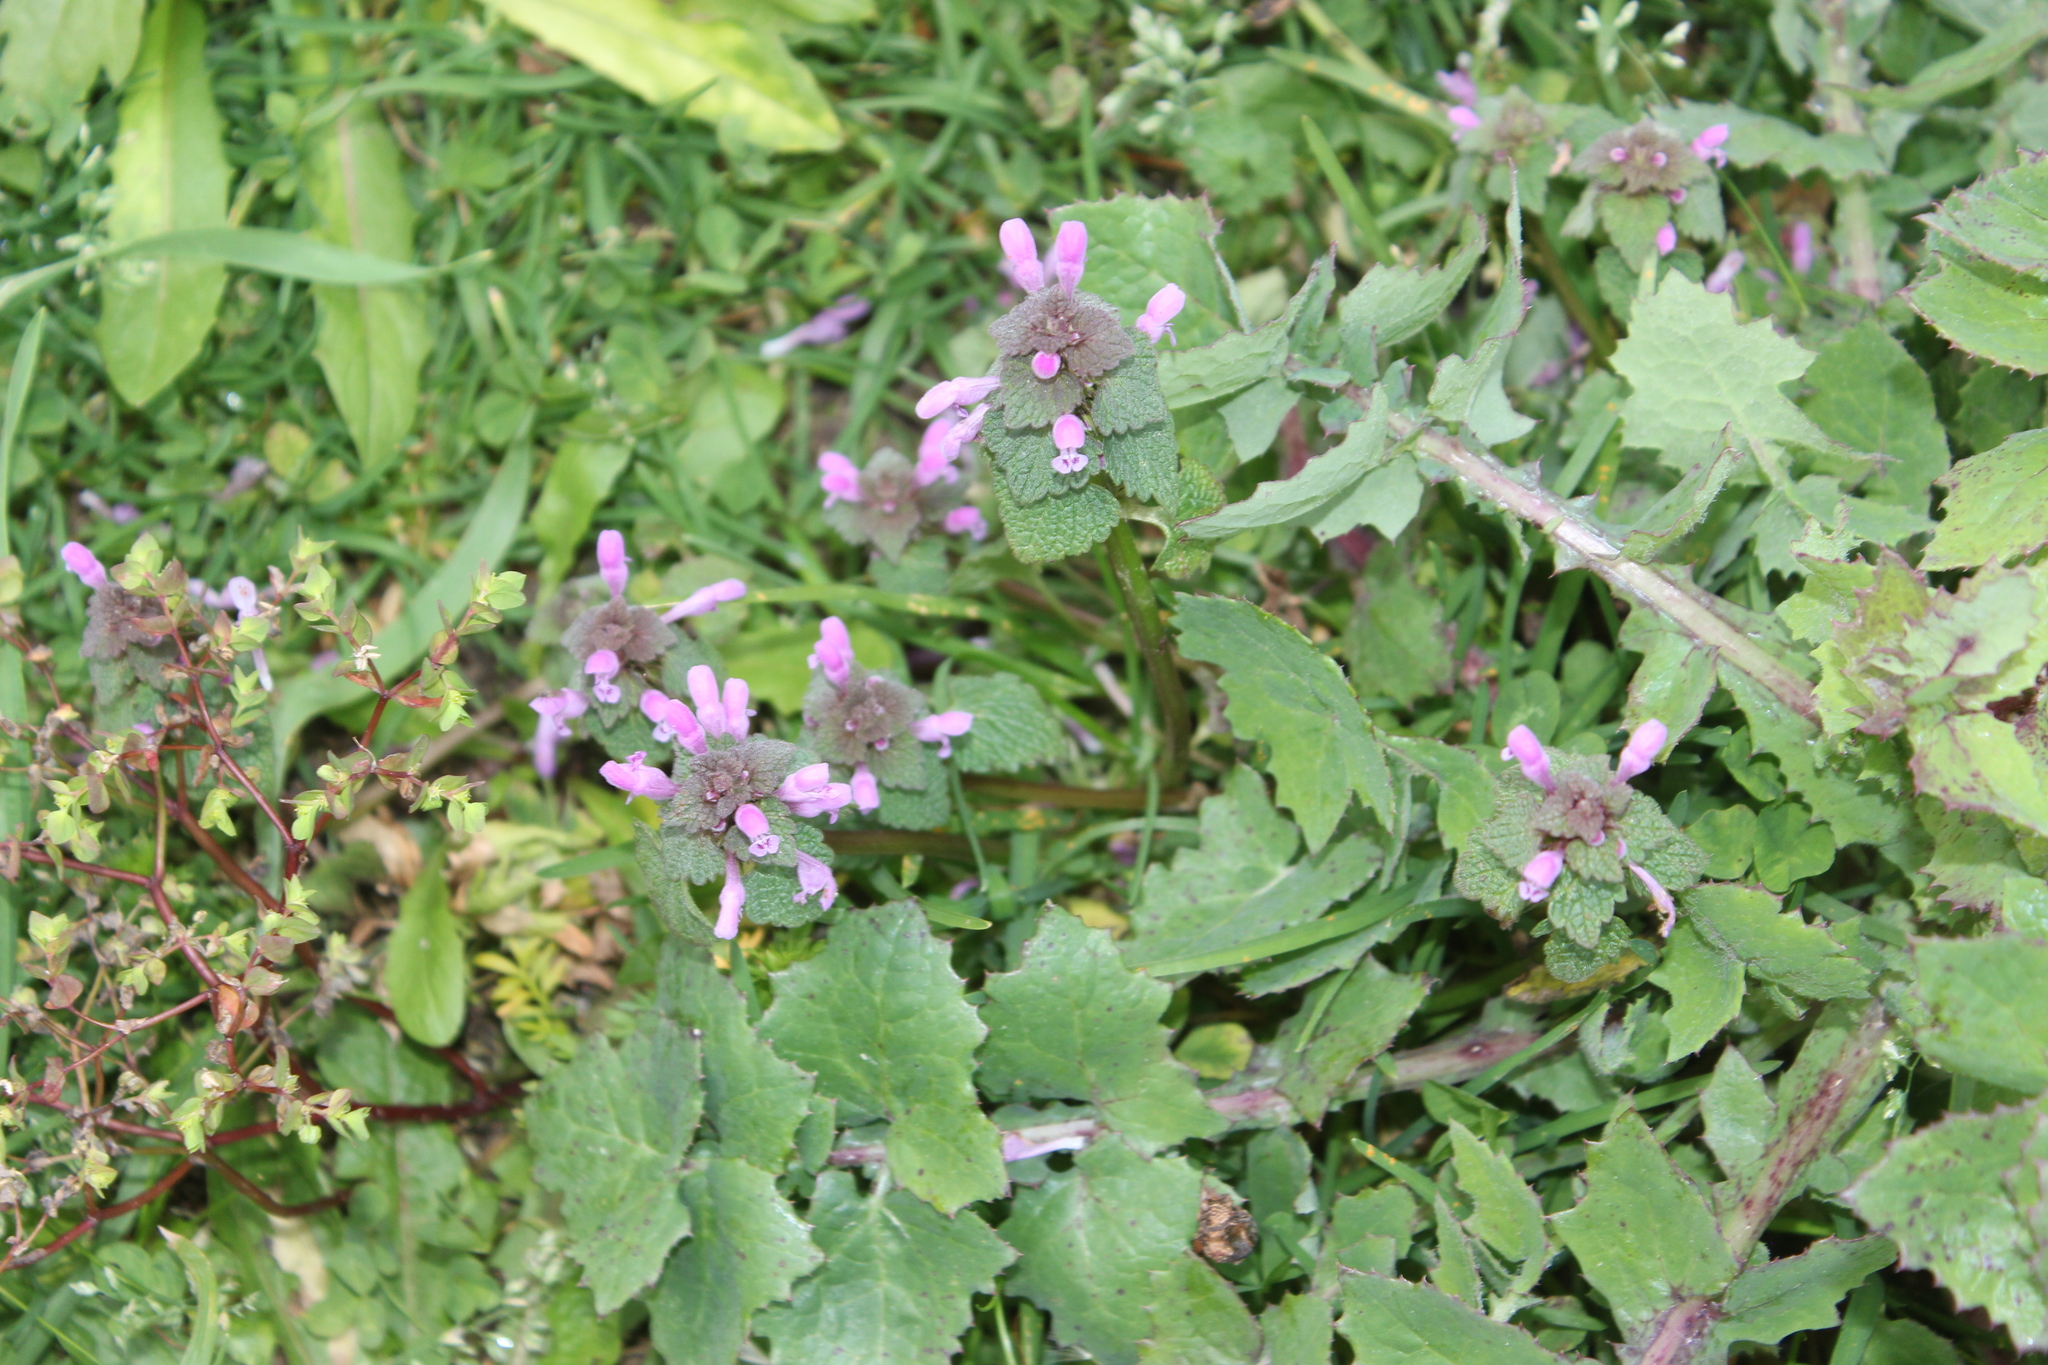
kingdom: Plantae
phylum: Tracheophyta
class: Magnoliopsida
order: Lamiales
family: Lamiaceae
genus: Lamium
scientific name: Lamium purpureum
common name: Red dead-nettle
